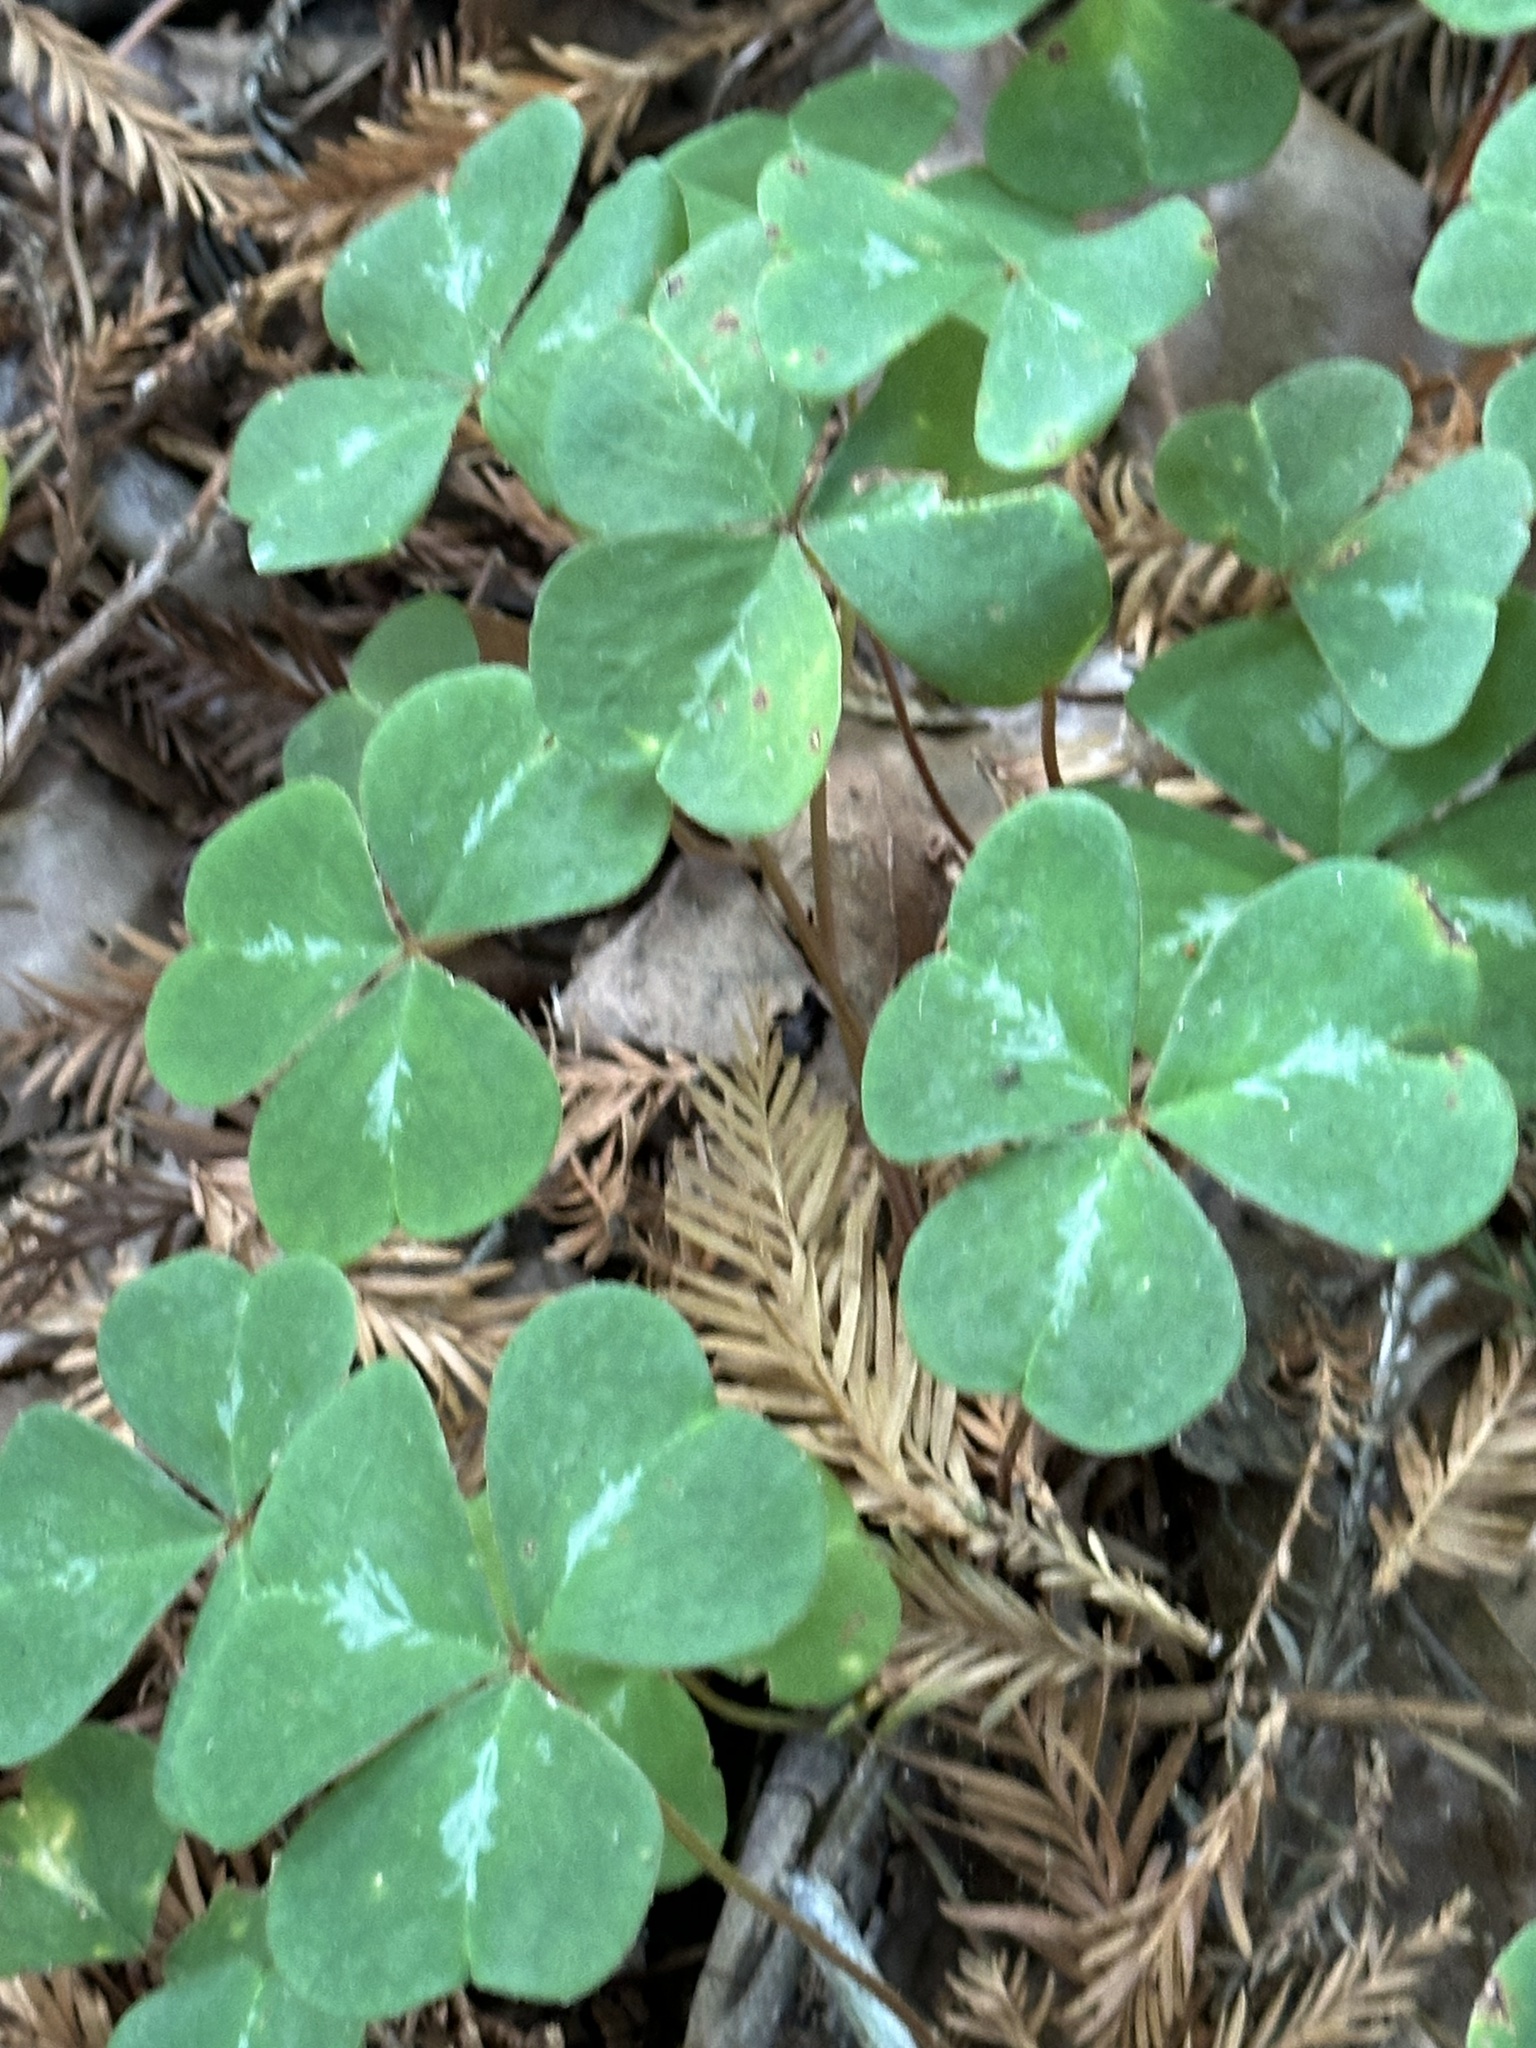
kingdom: Plantae
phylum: Tracheophyta
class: Magnoliopsida
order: Oxalidales
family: Oxalidaceae
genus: Oxalis
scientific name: Oxalis oregana
